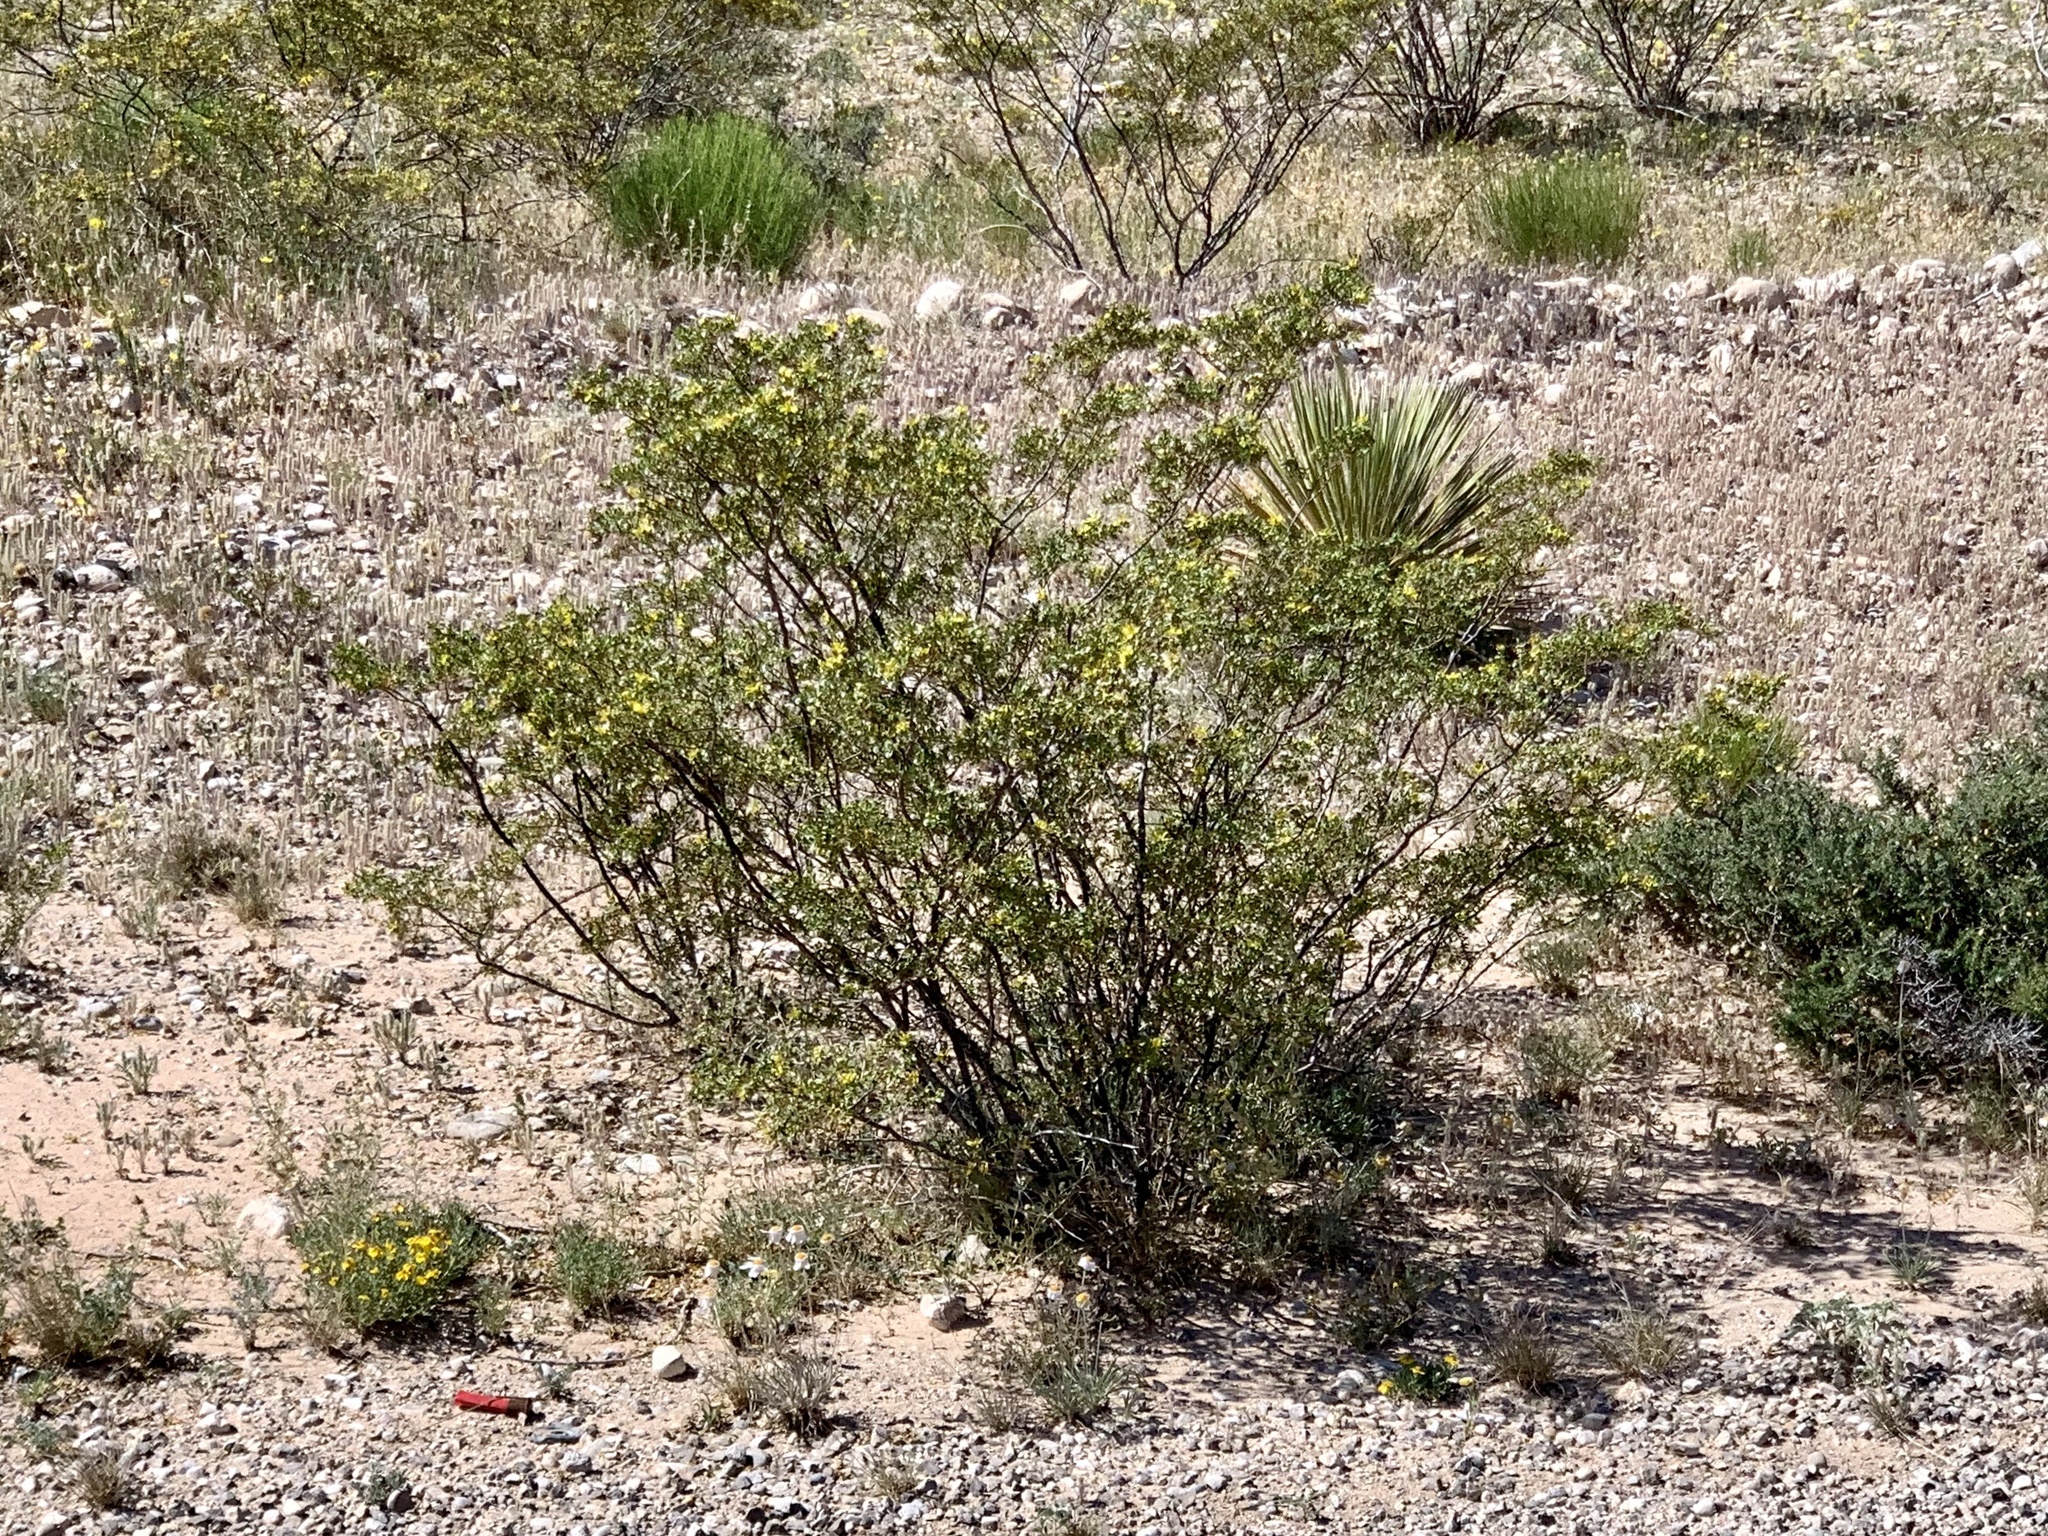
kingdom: Plantae
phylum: Tracheophyta
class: Magnoliopsida
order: Zygophyllales
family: Zygophyllaceae
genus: Larrea
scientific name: Larrea tridentata
